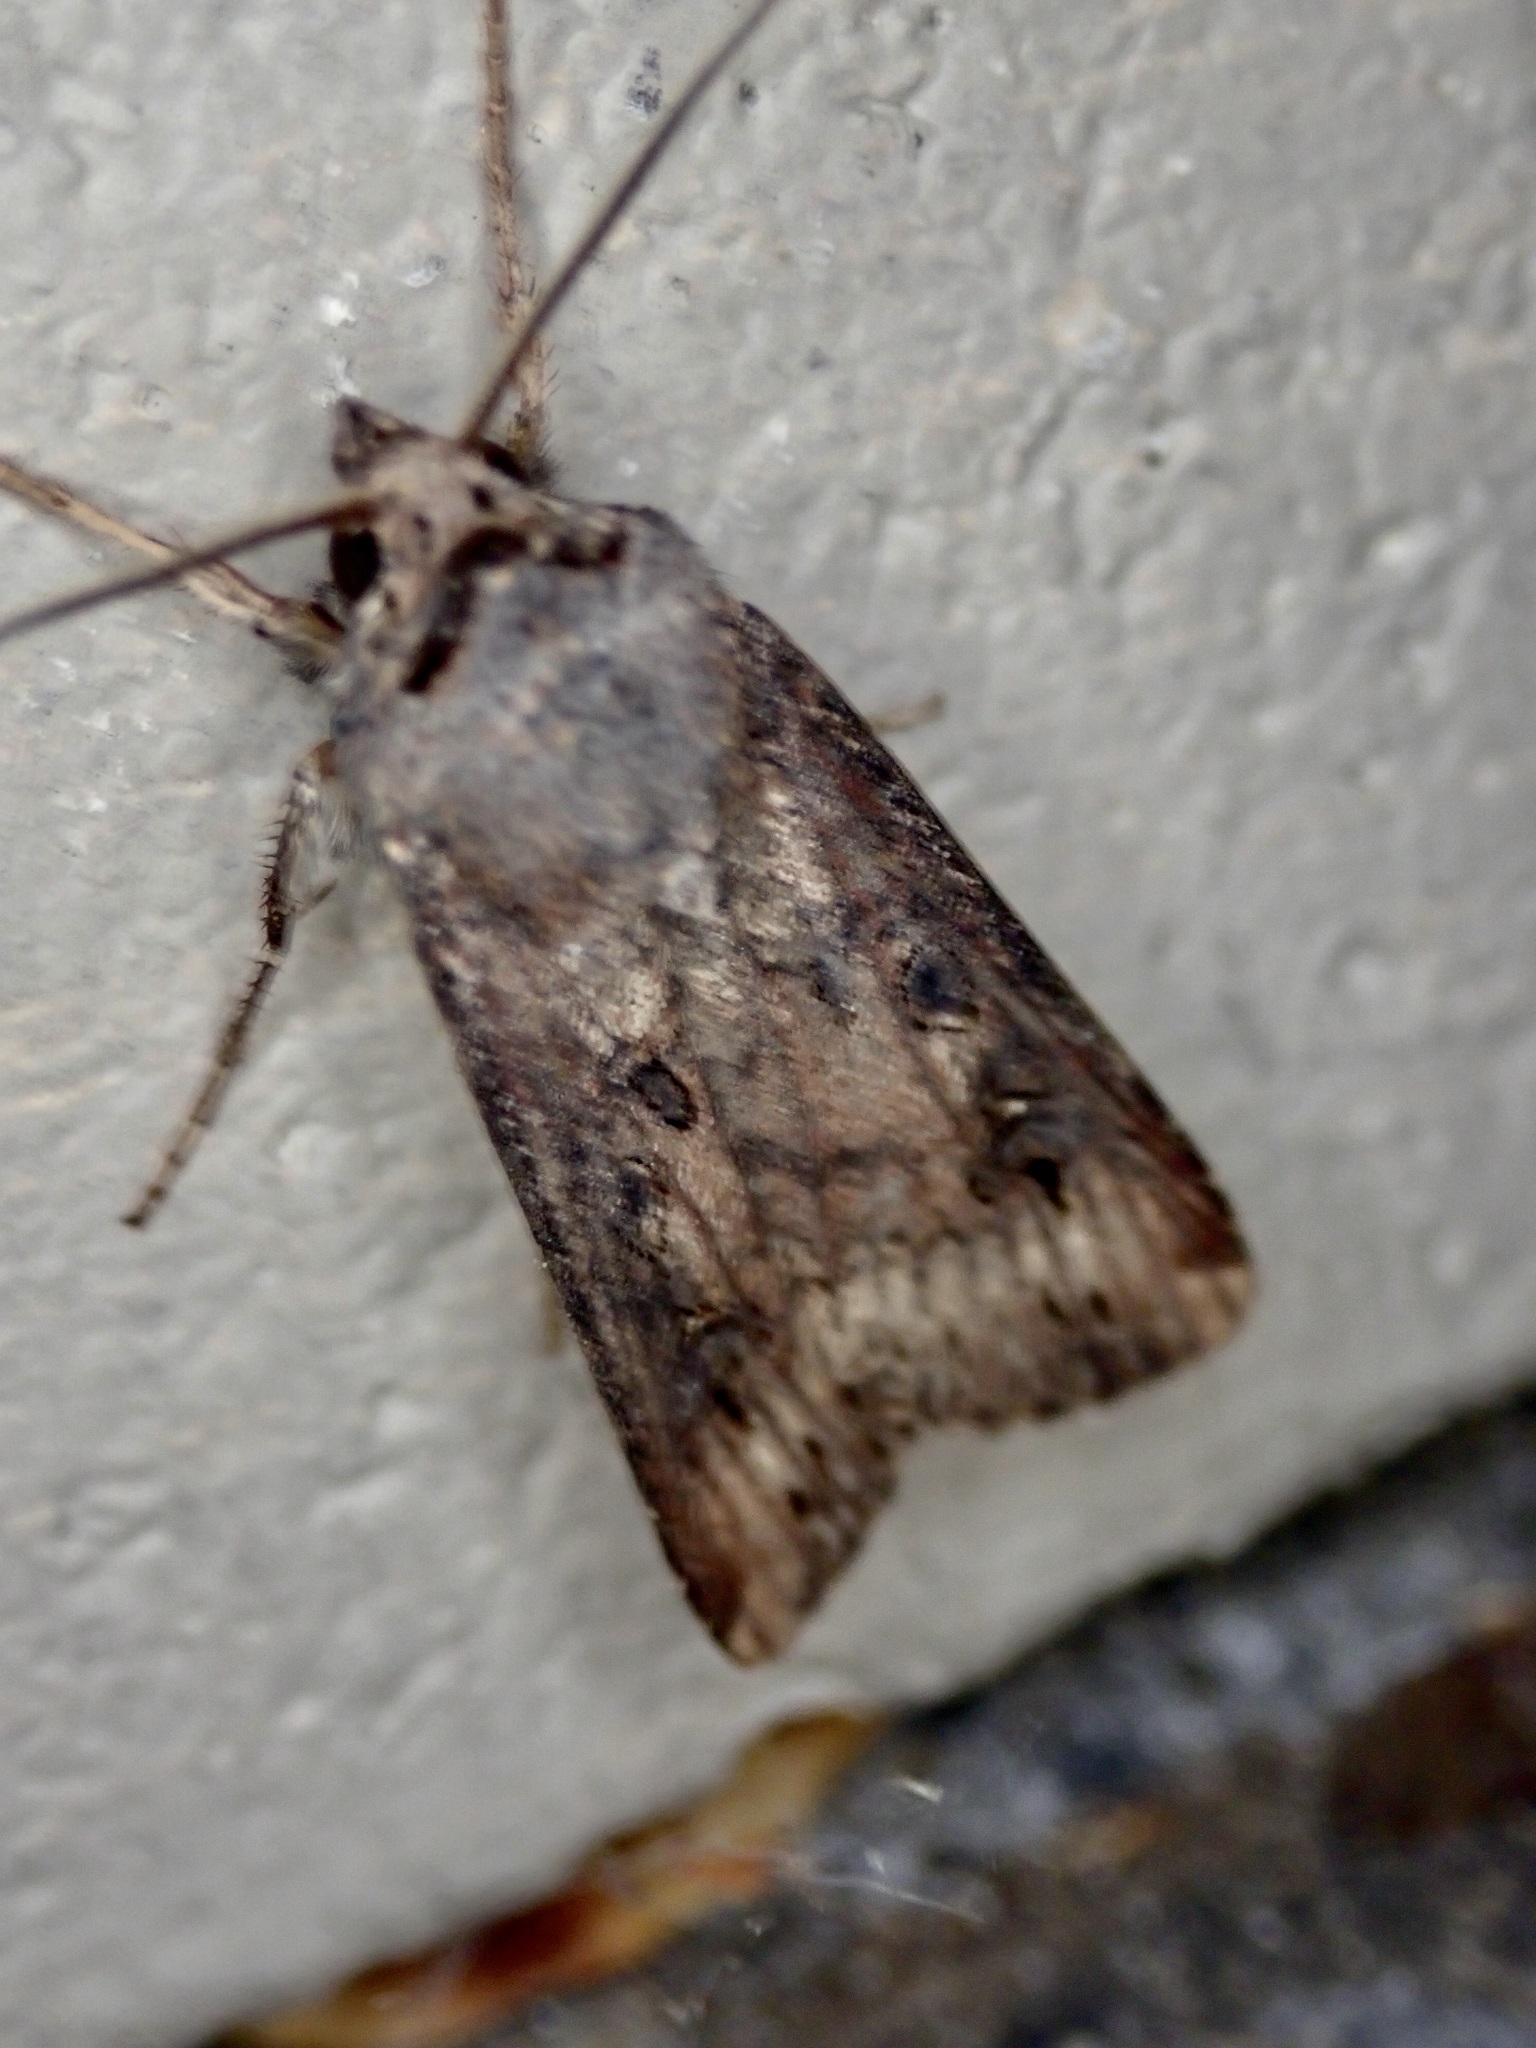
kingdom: Animalia
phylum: Arthropoda
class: Insecta
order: Lepidoptera
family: Noctuidae
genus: Agrotis
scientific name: Agrotis ipsilon
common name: Dark sword-grass
